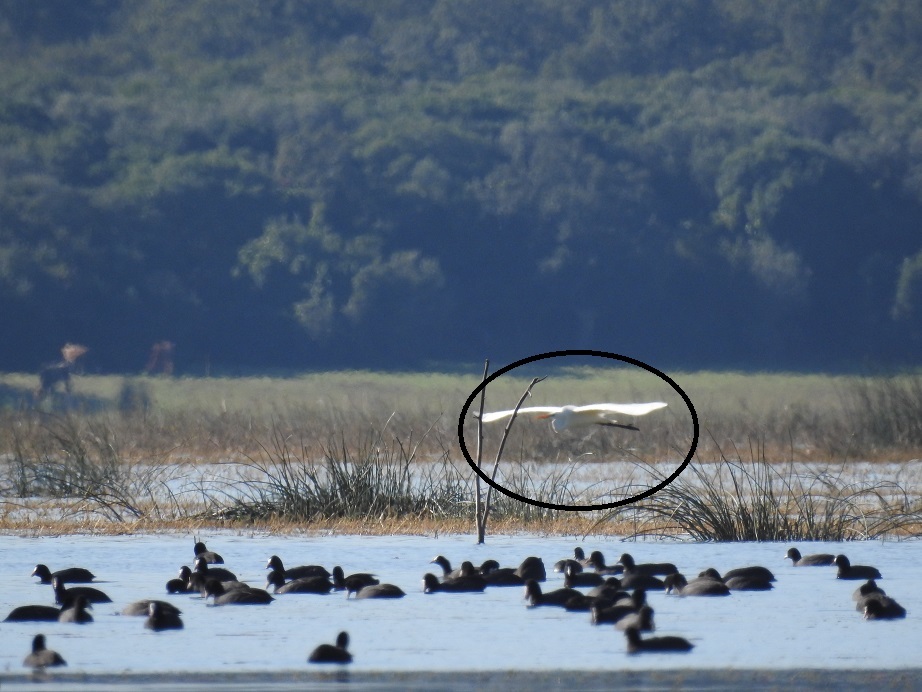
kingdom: Animalia
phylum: Chordata
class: Aves
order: Pelecaniformes
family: Ardeidae
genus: Ardea
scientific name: Ardea alba
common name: Great egret
